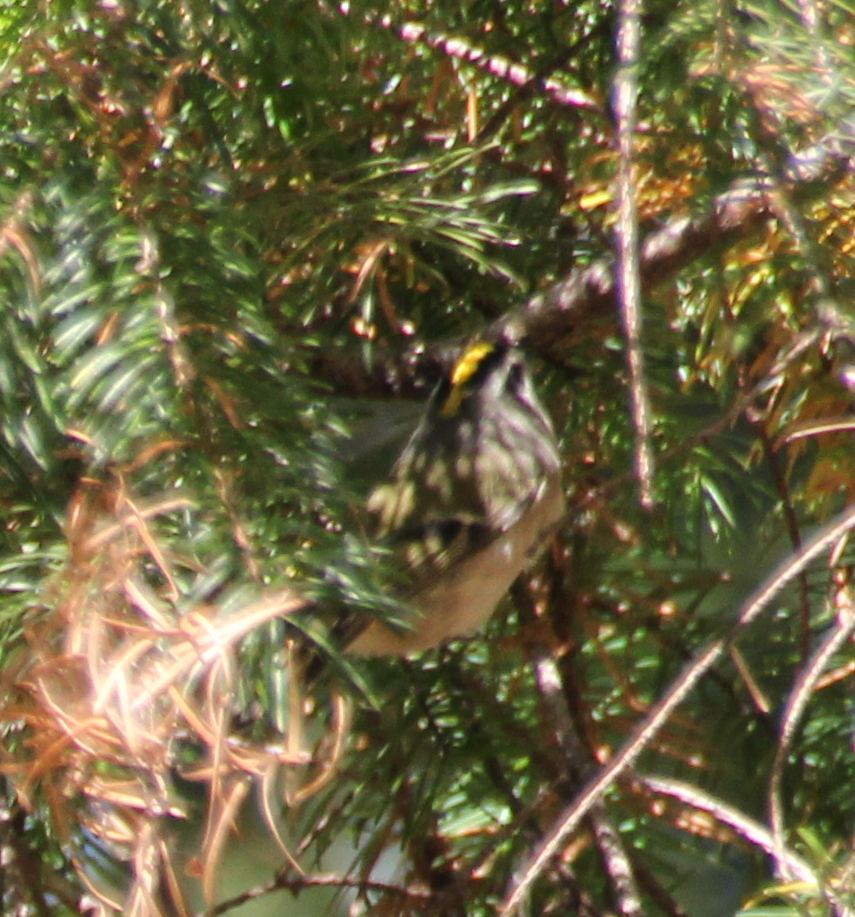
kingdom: Animalia
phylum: Chordata
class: Aves
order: Passeriformes
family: Regulidae
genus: Regulus
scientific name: Regulus satrapa
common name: Golden-crowned kinglet
